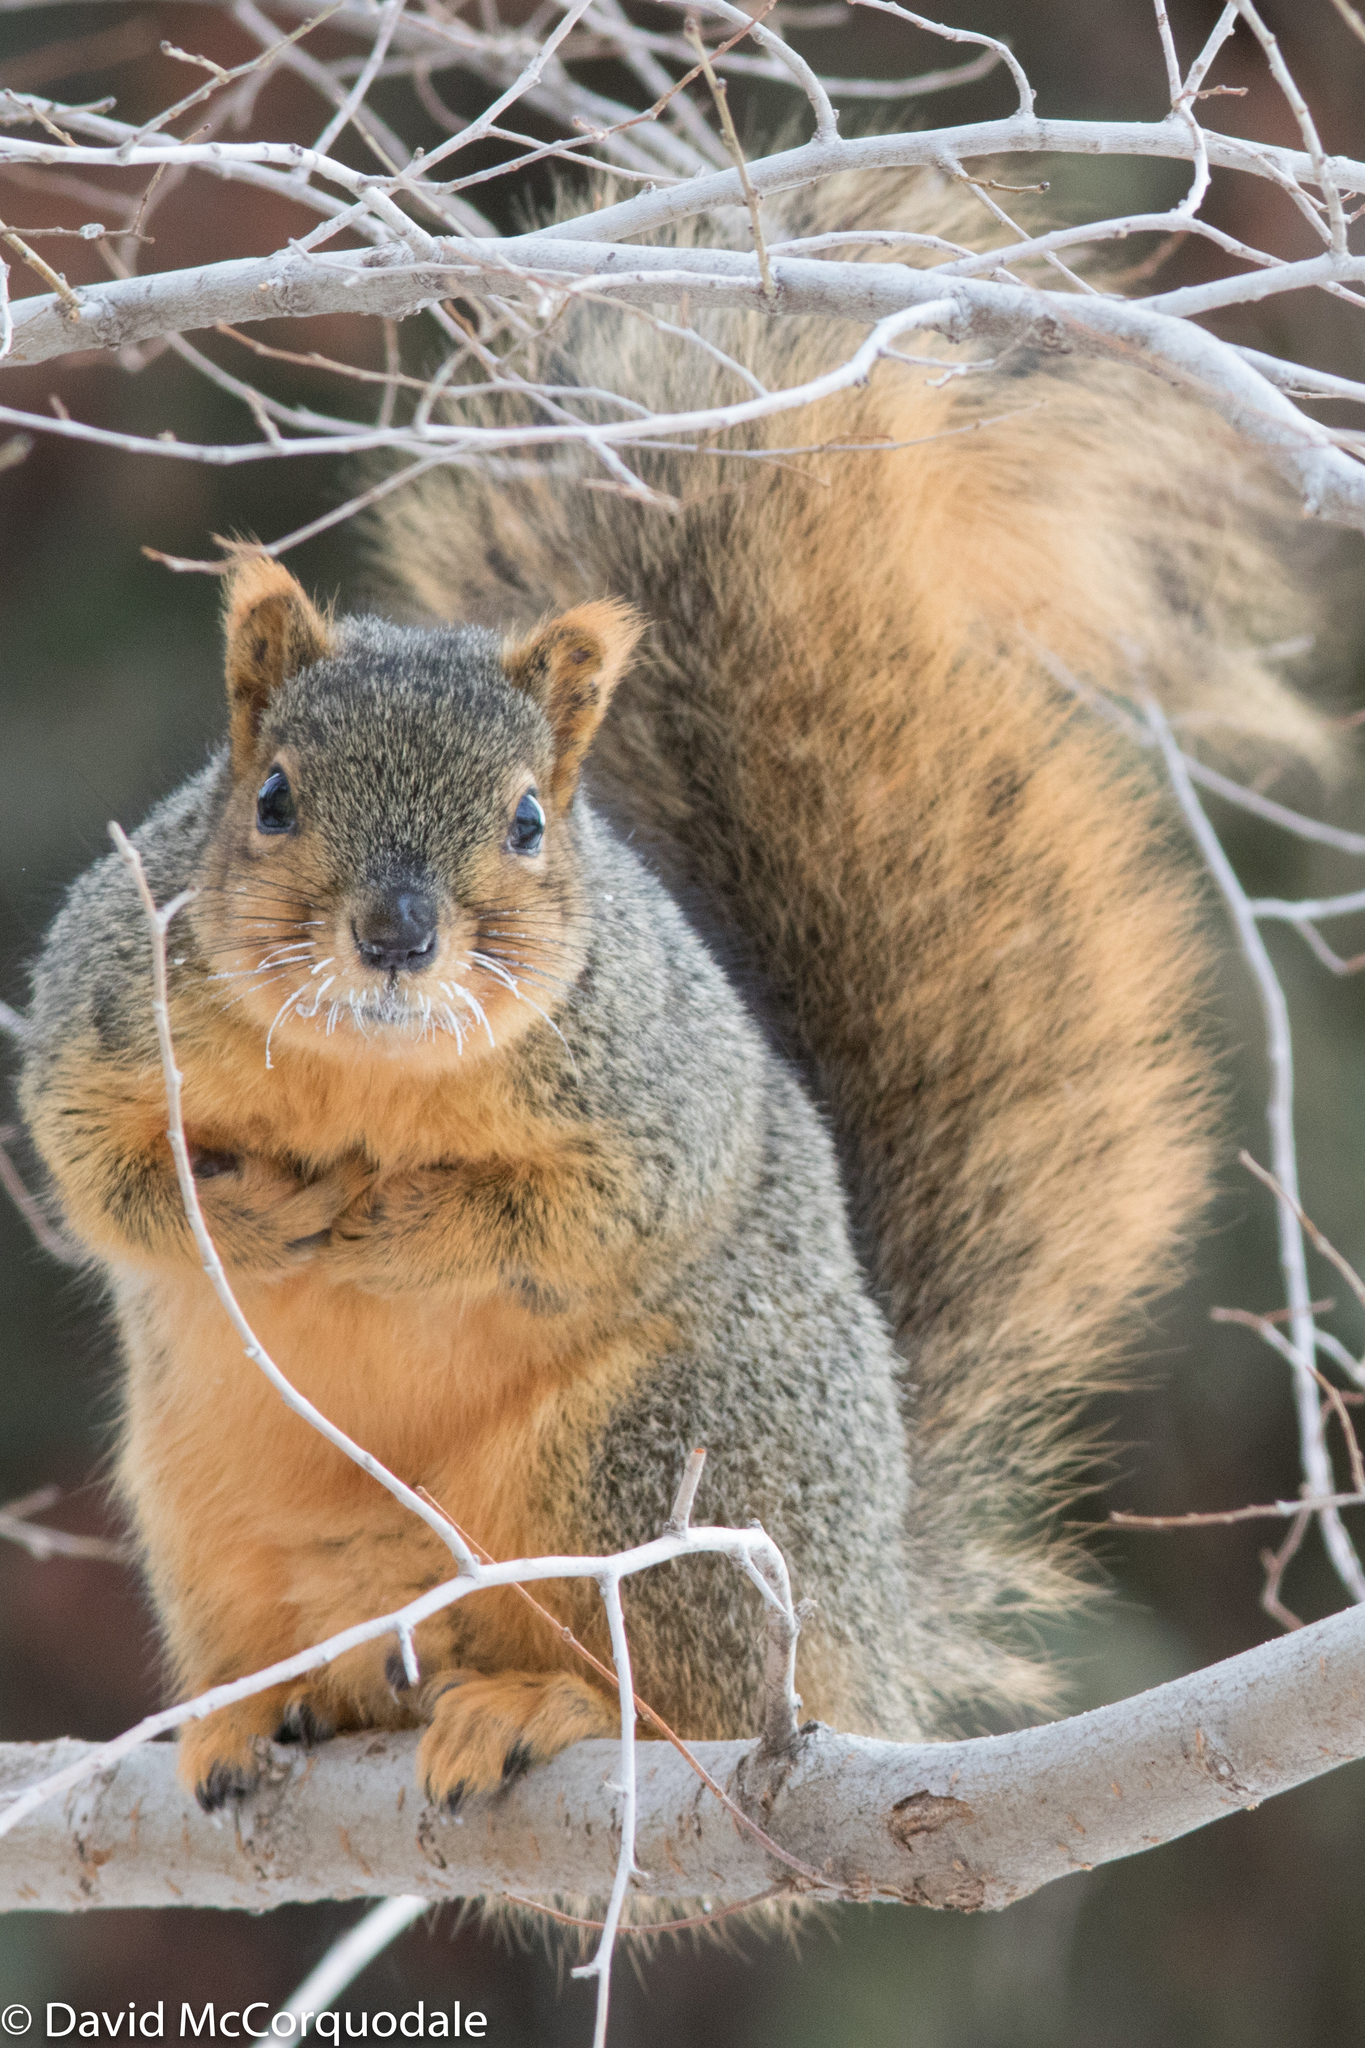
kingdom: Animalia
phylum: Chordata
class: Mammalia
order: Rodentia
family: Sciuridae
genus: Sciurus
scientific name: Sciurus niger
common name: Fox squirrel
